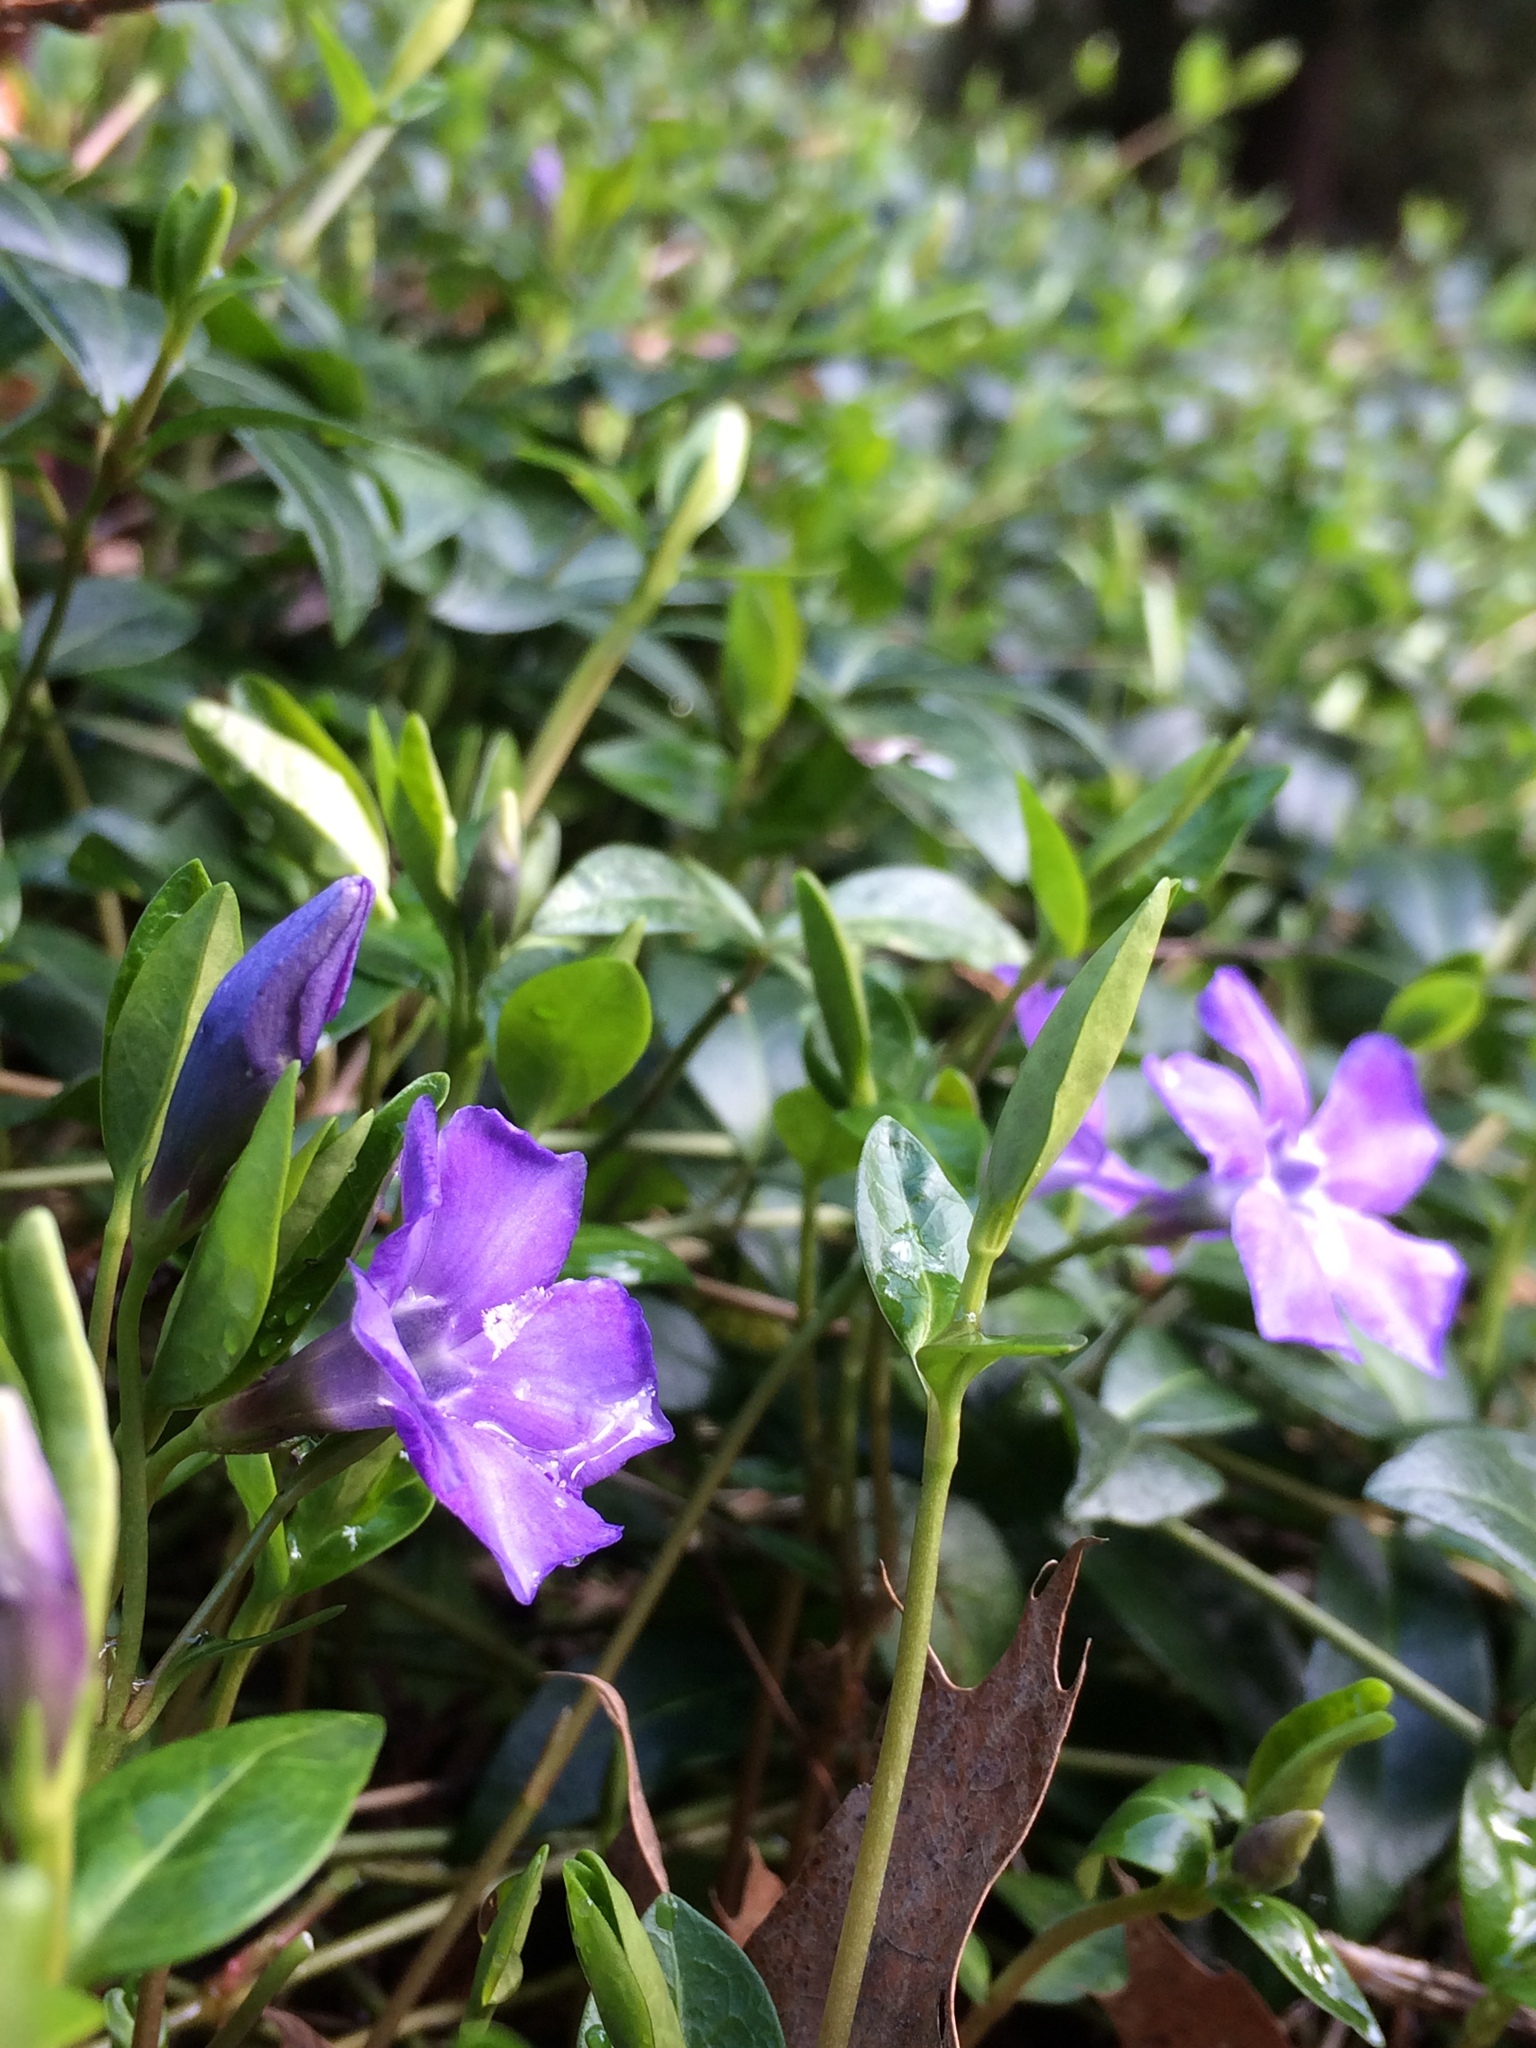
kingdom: Plantae
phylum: Tracheophyta
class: Magnoliopsida
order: Gentianales
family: Apocynaceae
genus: Vinca
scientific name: Vinca minor
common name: Lesser periwinkle
